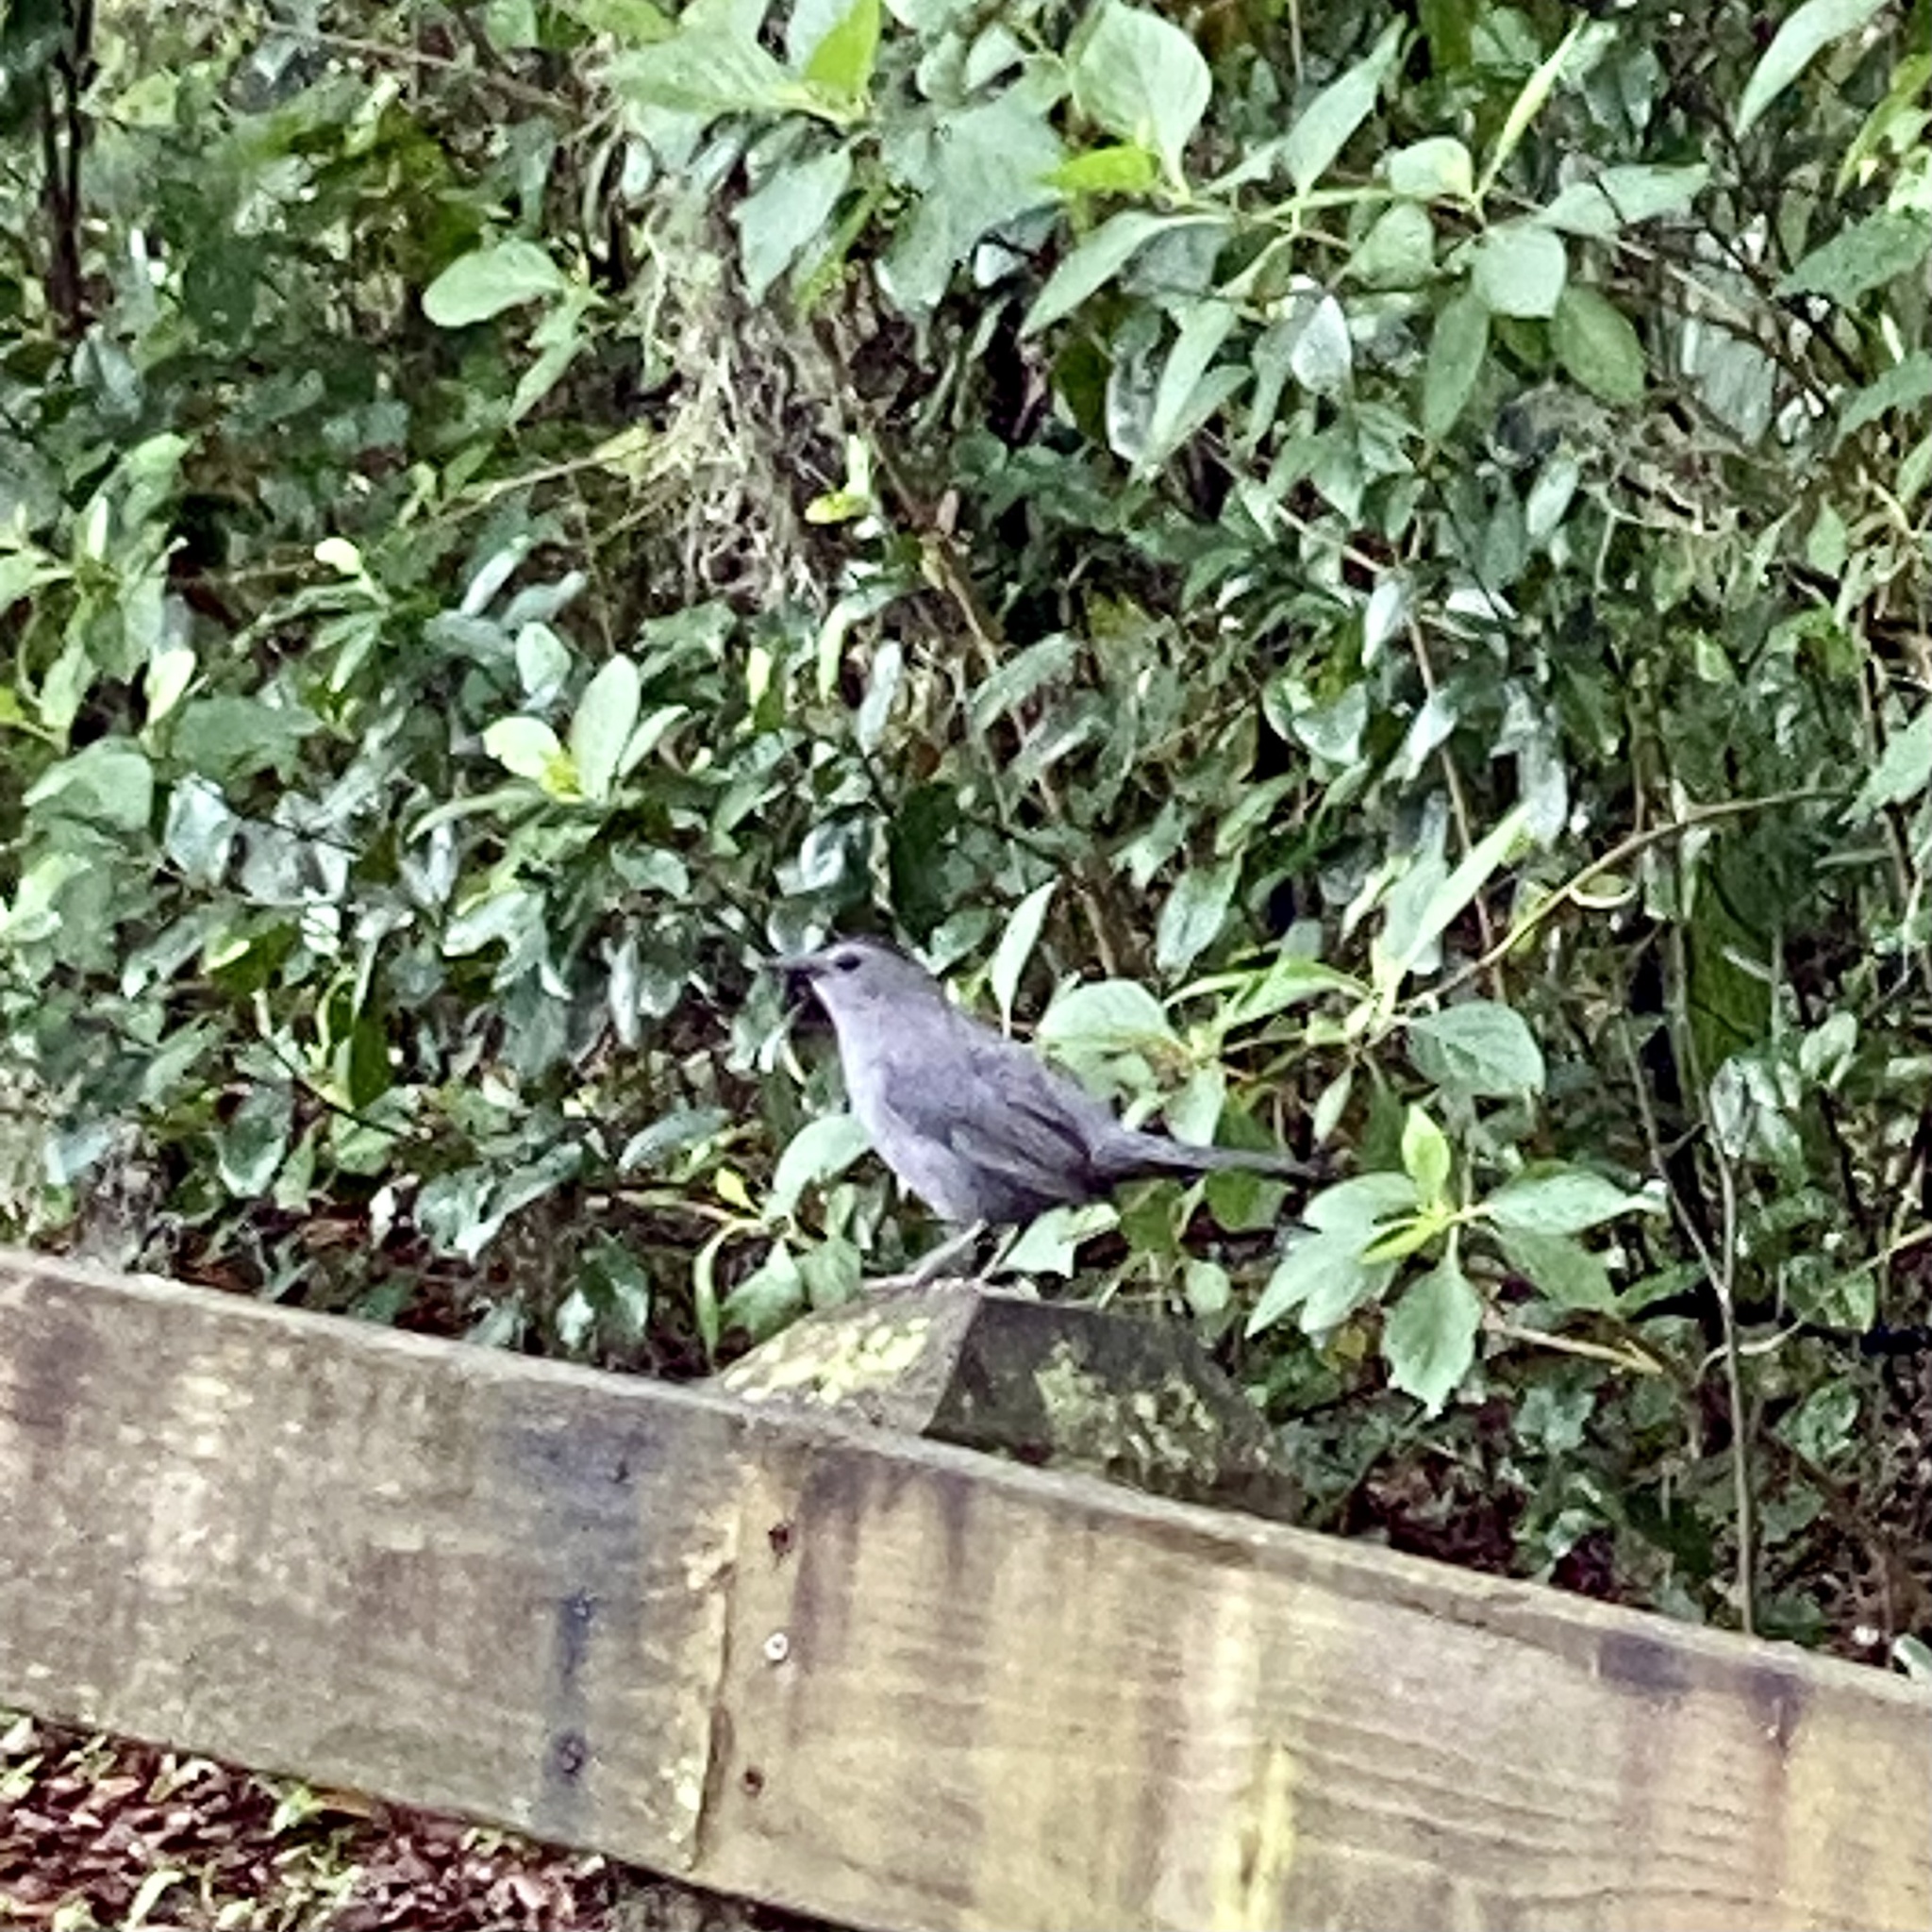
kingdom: Animalia
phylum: Chordata
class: Aves
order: Passeriformes
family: Mimidae
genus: Dumetella
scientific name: Dumetella carolinensis
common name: Gray catbird
